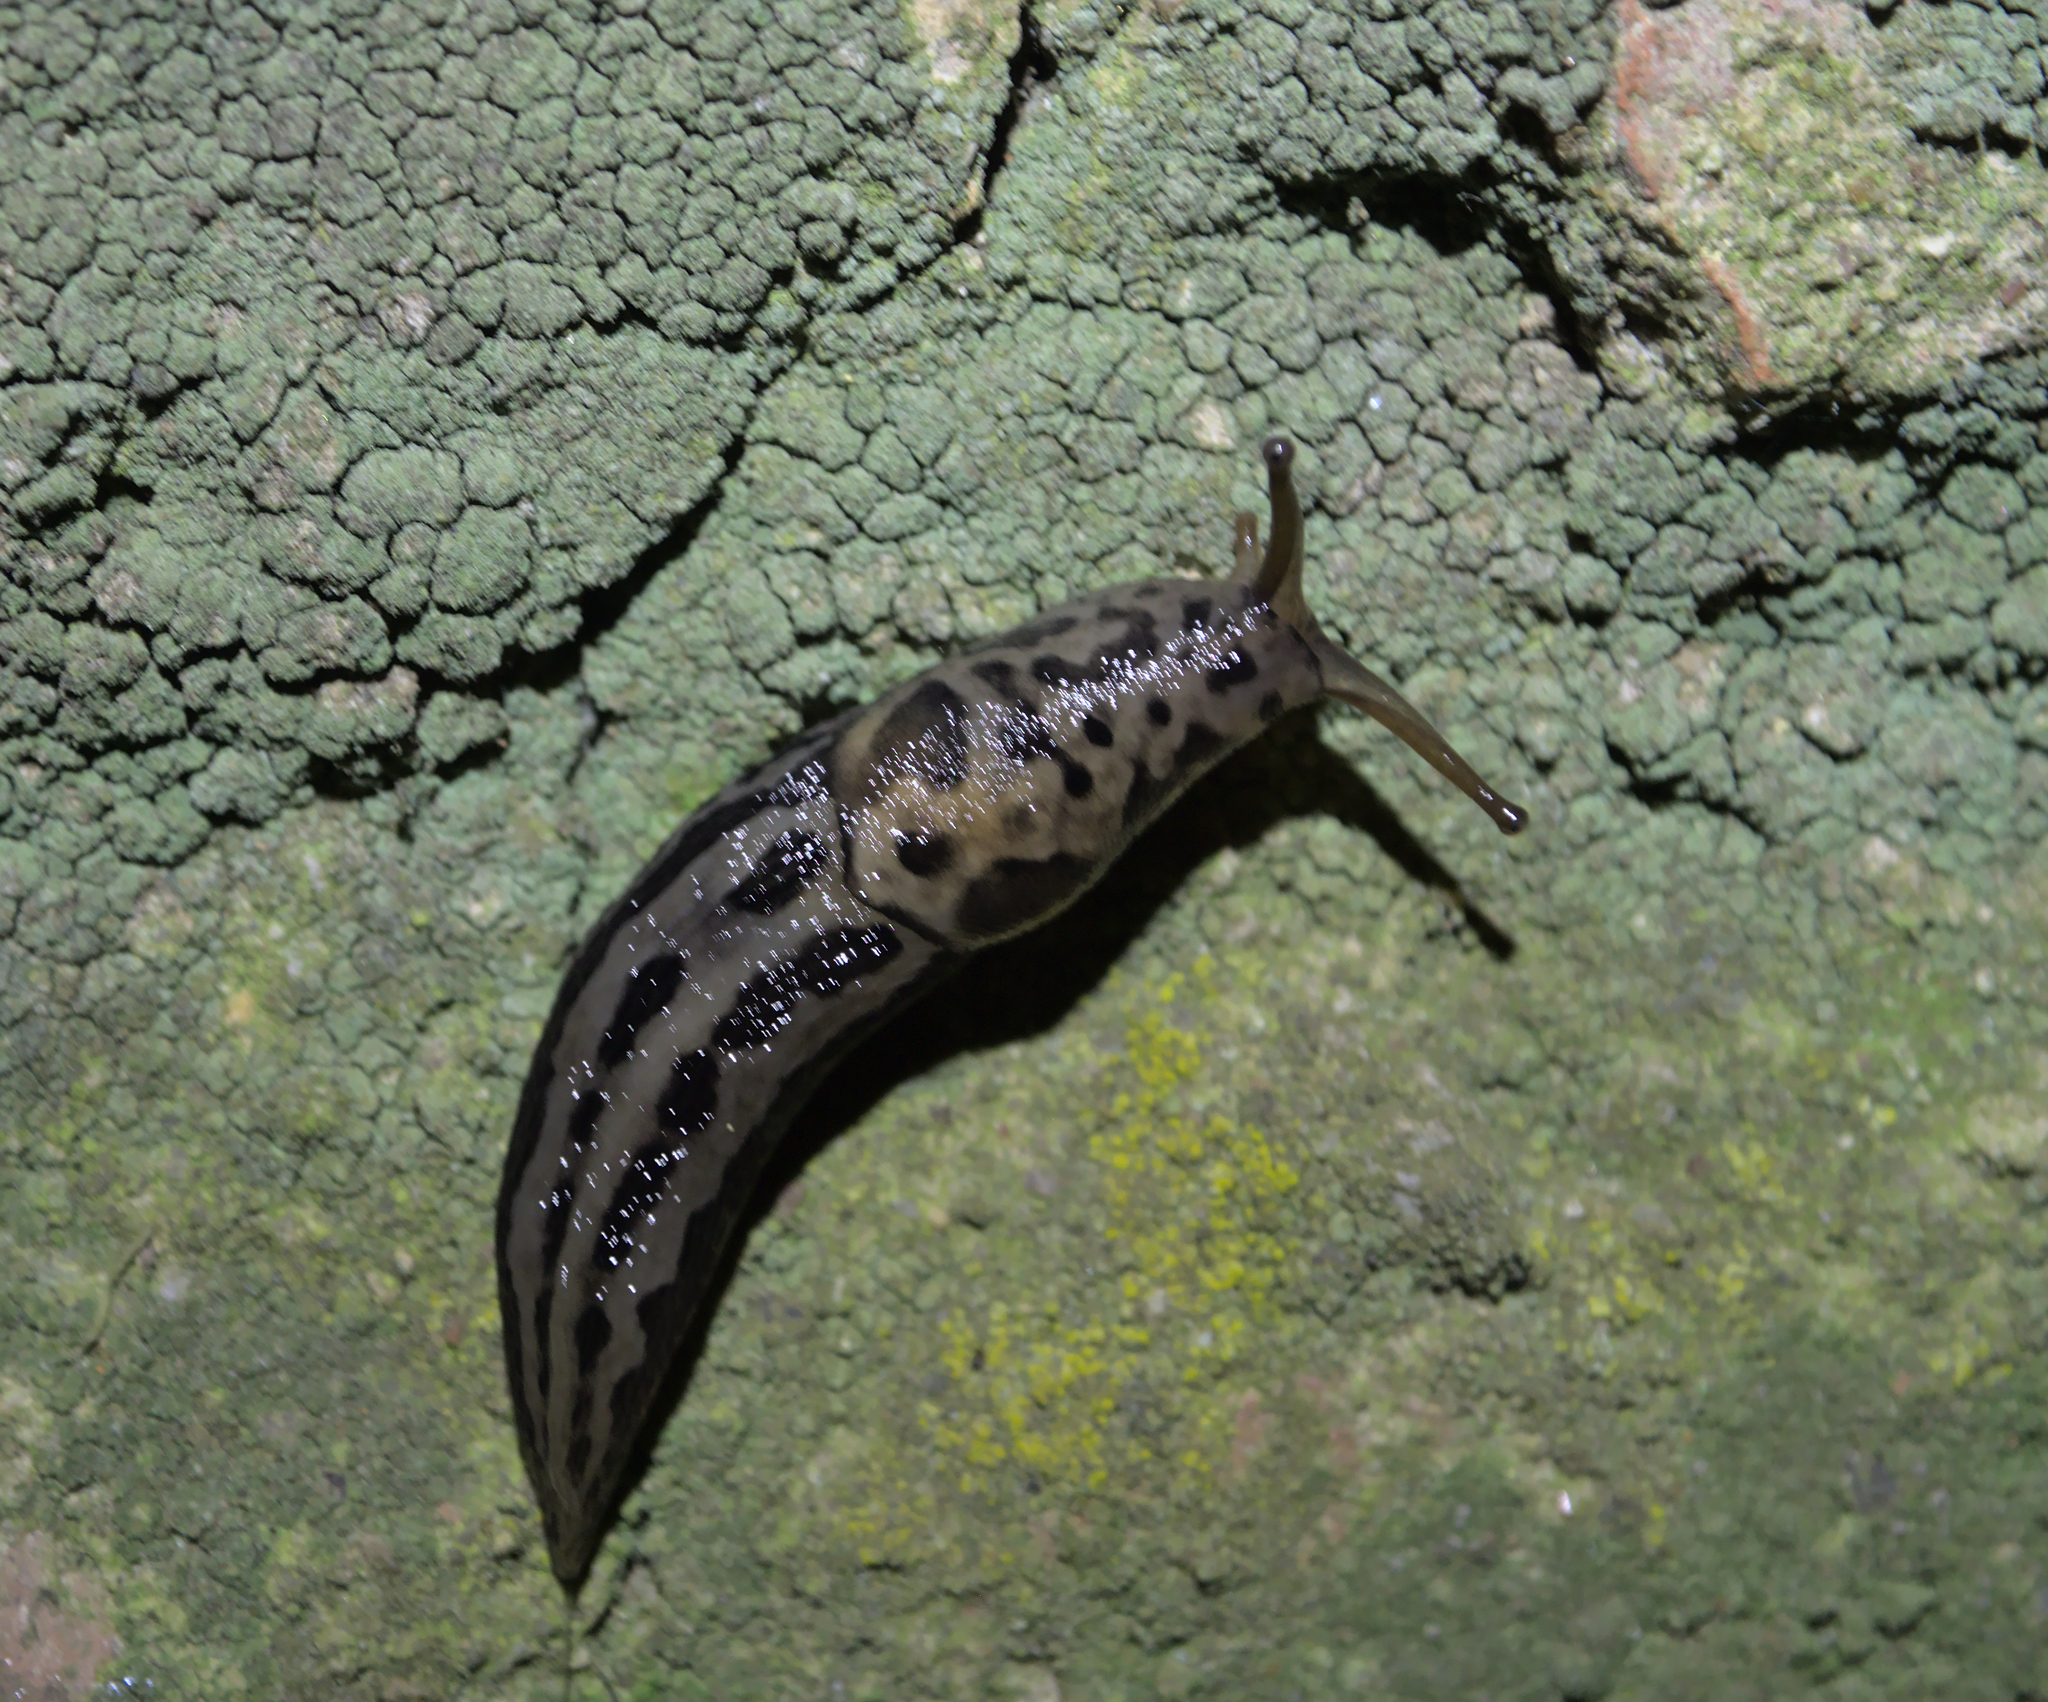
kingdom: Animalia
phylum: Mollusca
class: Gastropoda
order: Stylommatophora
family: Limacidae
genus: Limax
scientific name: Limax maximus
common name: Great grey slug
